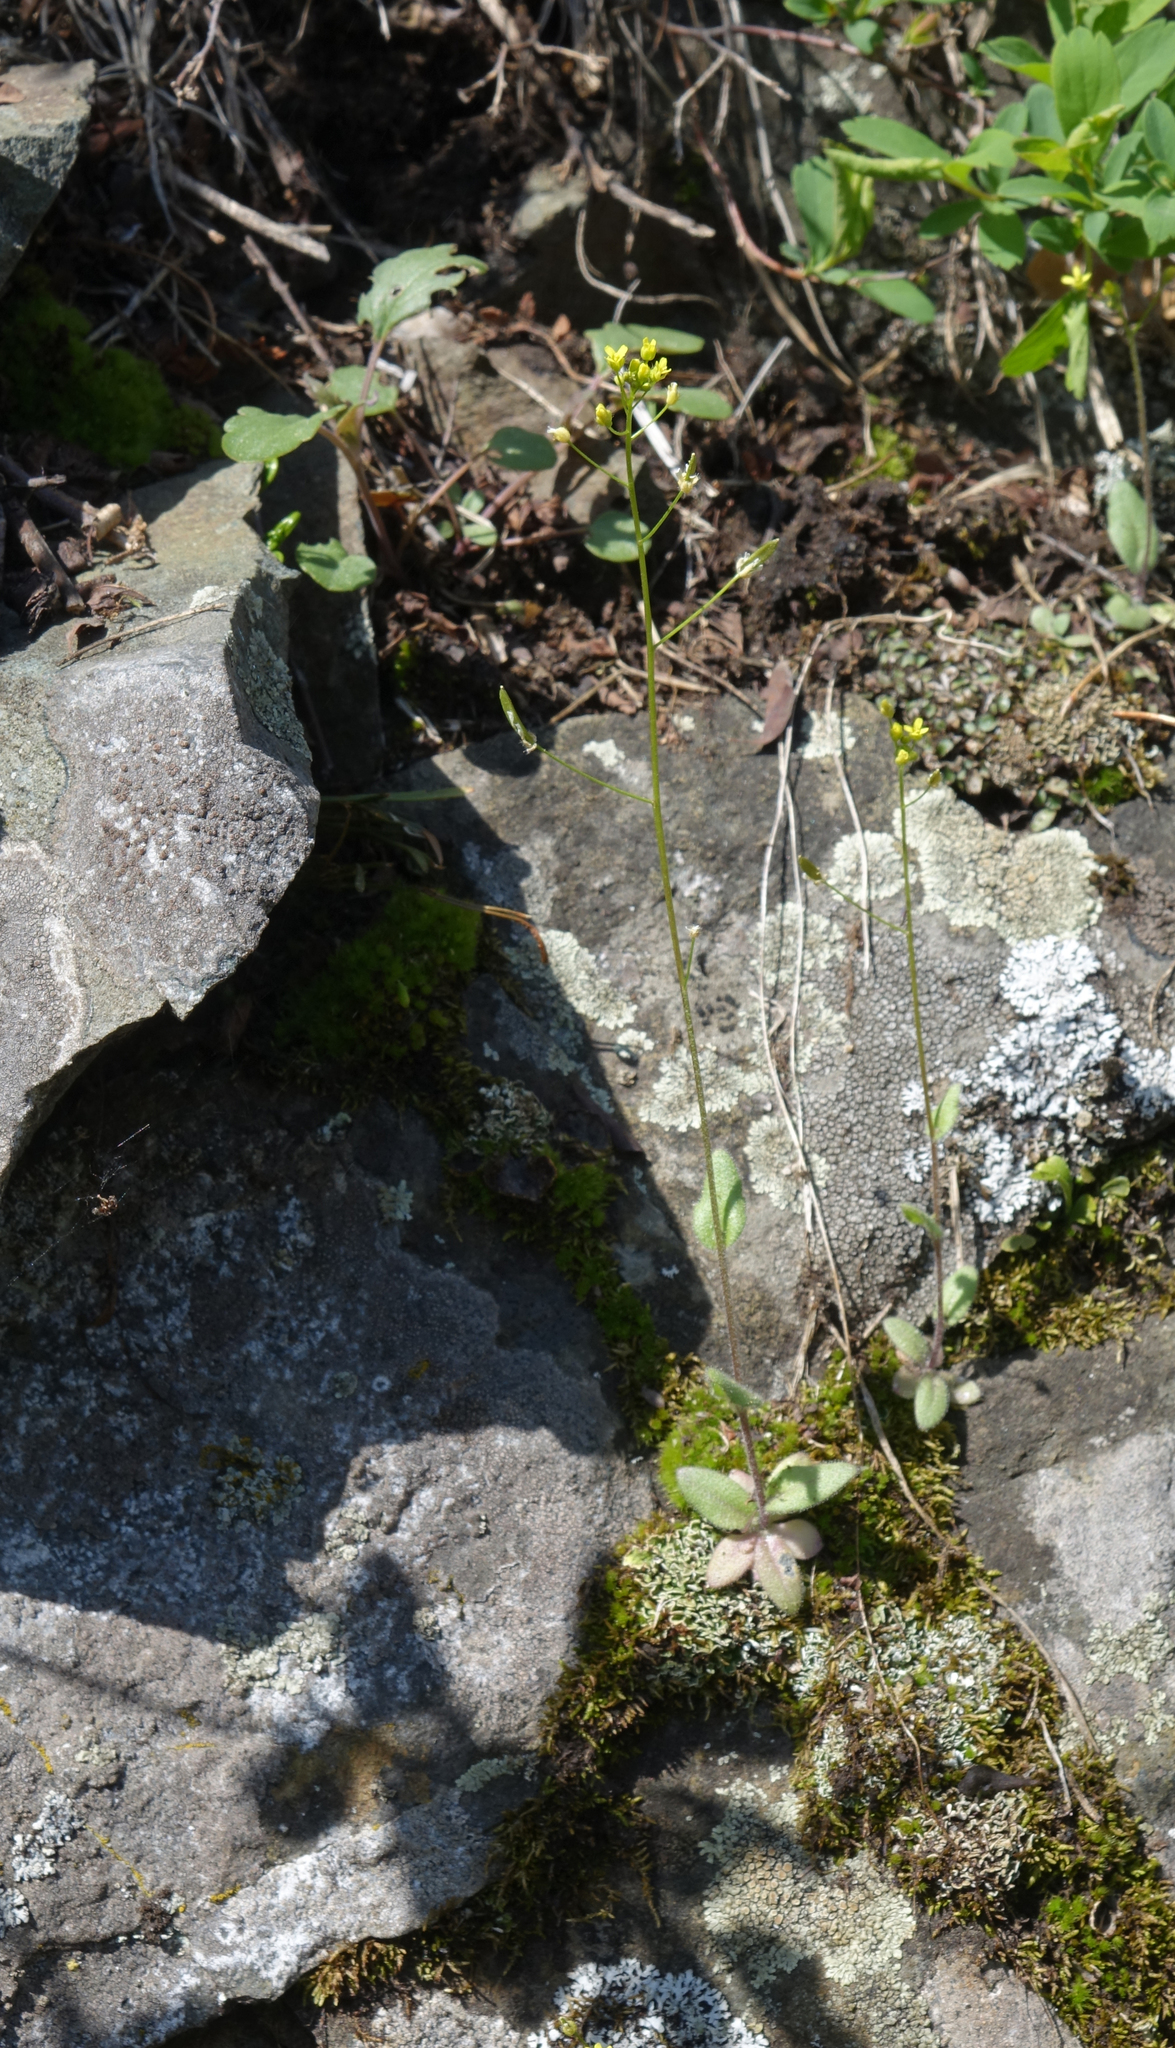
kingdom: Plantae
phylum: Tracheophyta
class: Magnoliopsida
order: Brassicales
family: Brassicaceae
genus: Draba
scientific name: Draba nemorosa
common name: Wood whitlow-grass
